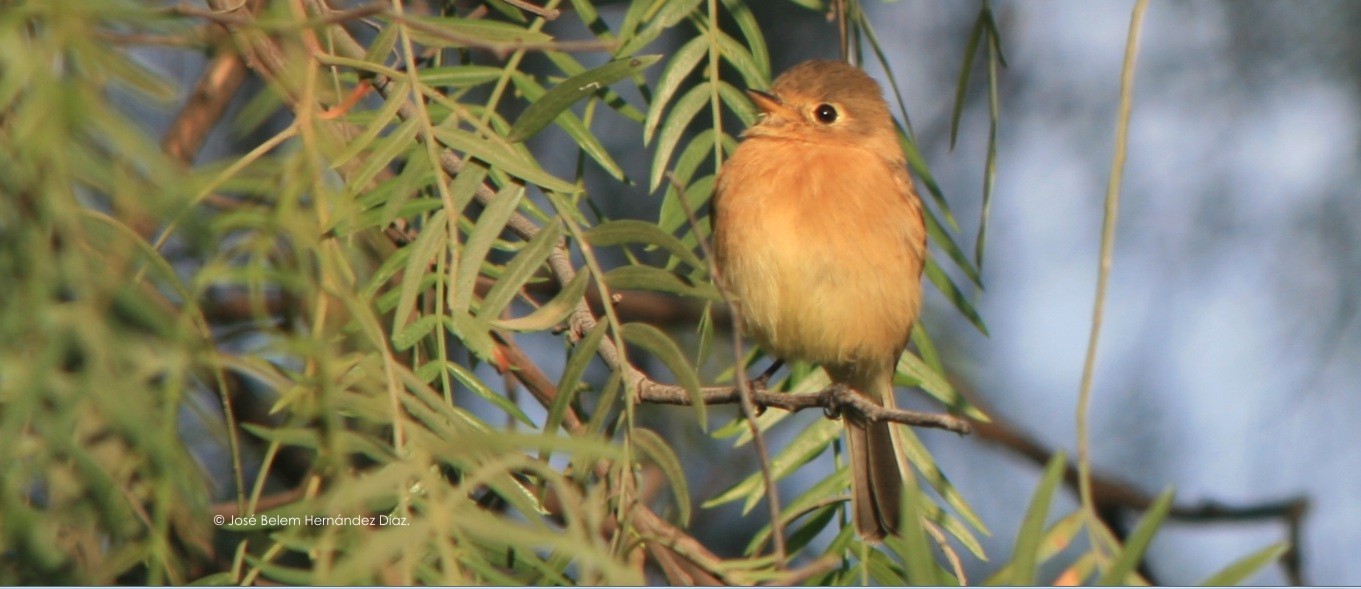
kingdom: Animalia
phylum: Chordata
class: Aves
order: Passeriformes
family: Tyrannidae
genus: Empidonax
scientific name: Empidonax fulvifrons
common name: Buff-breasted flycatcher
